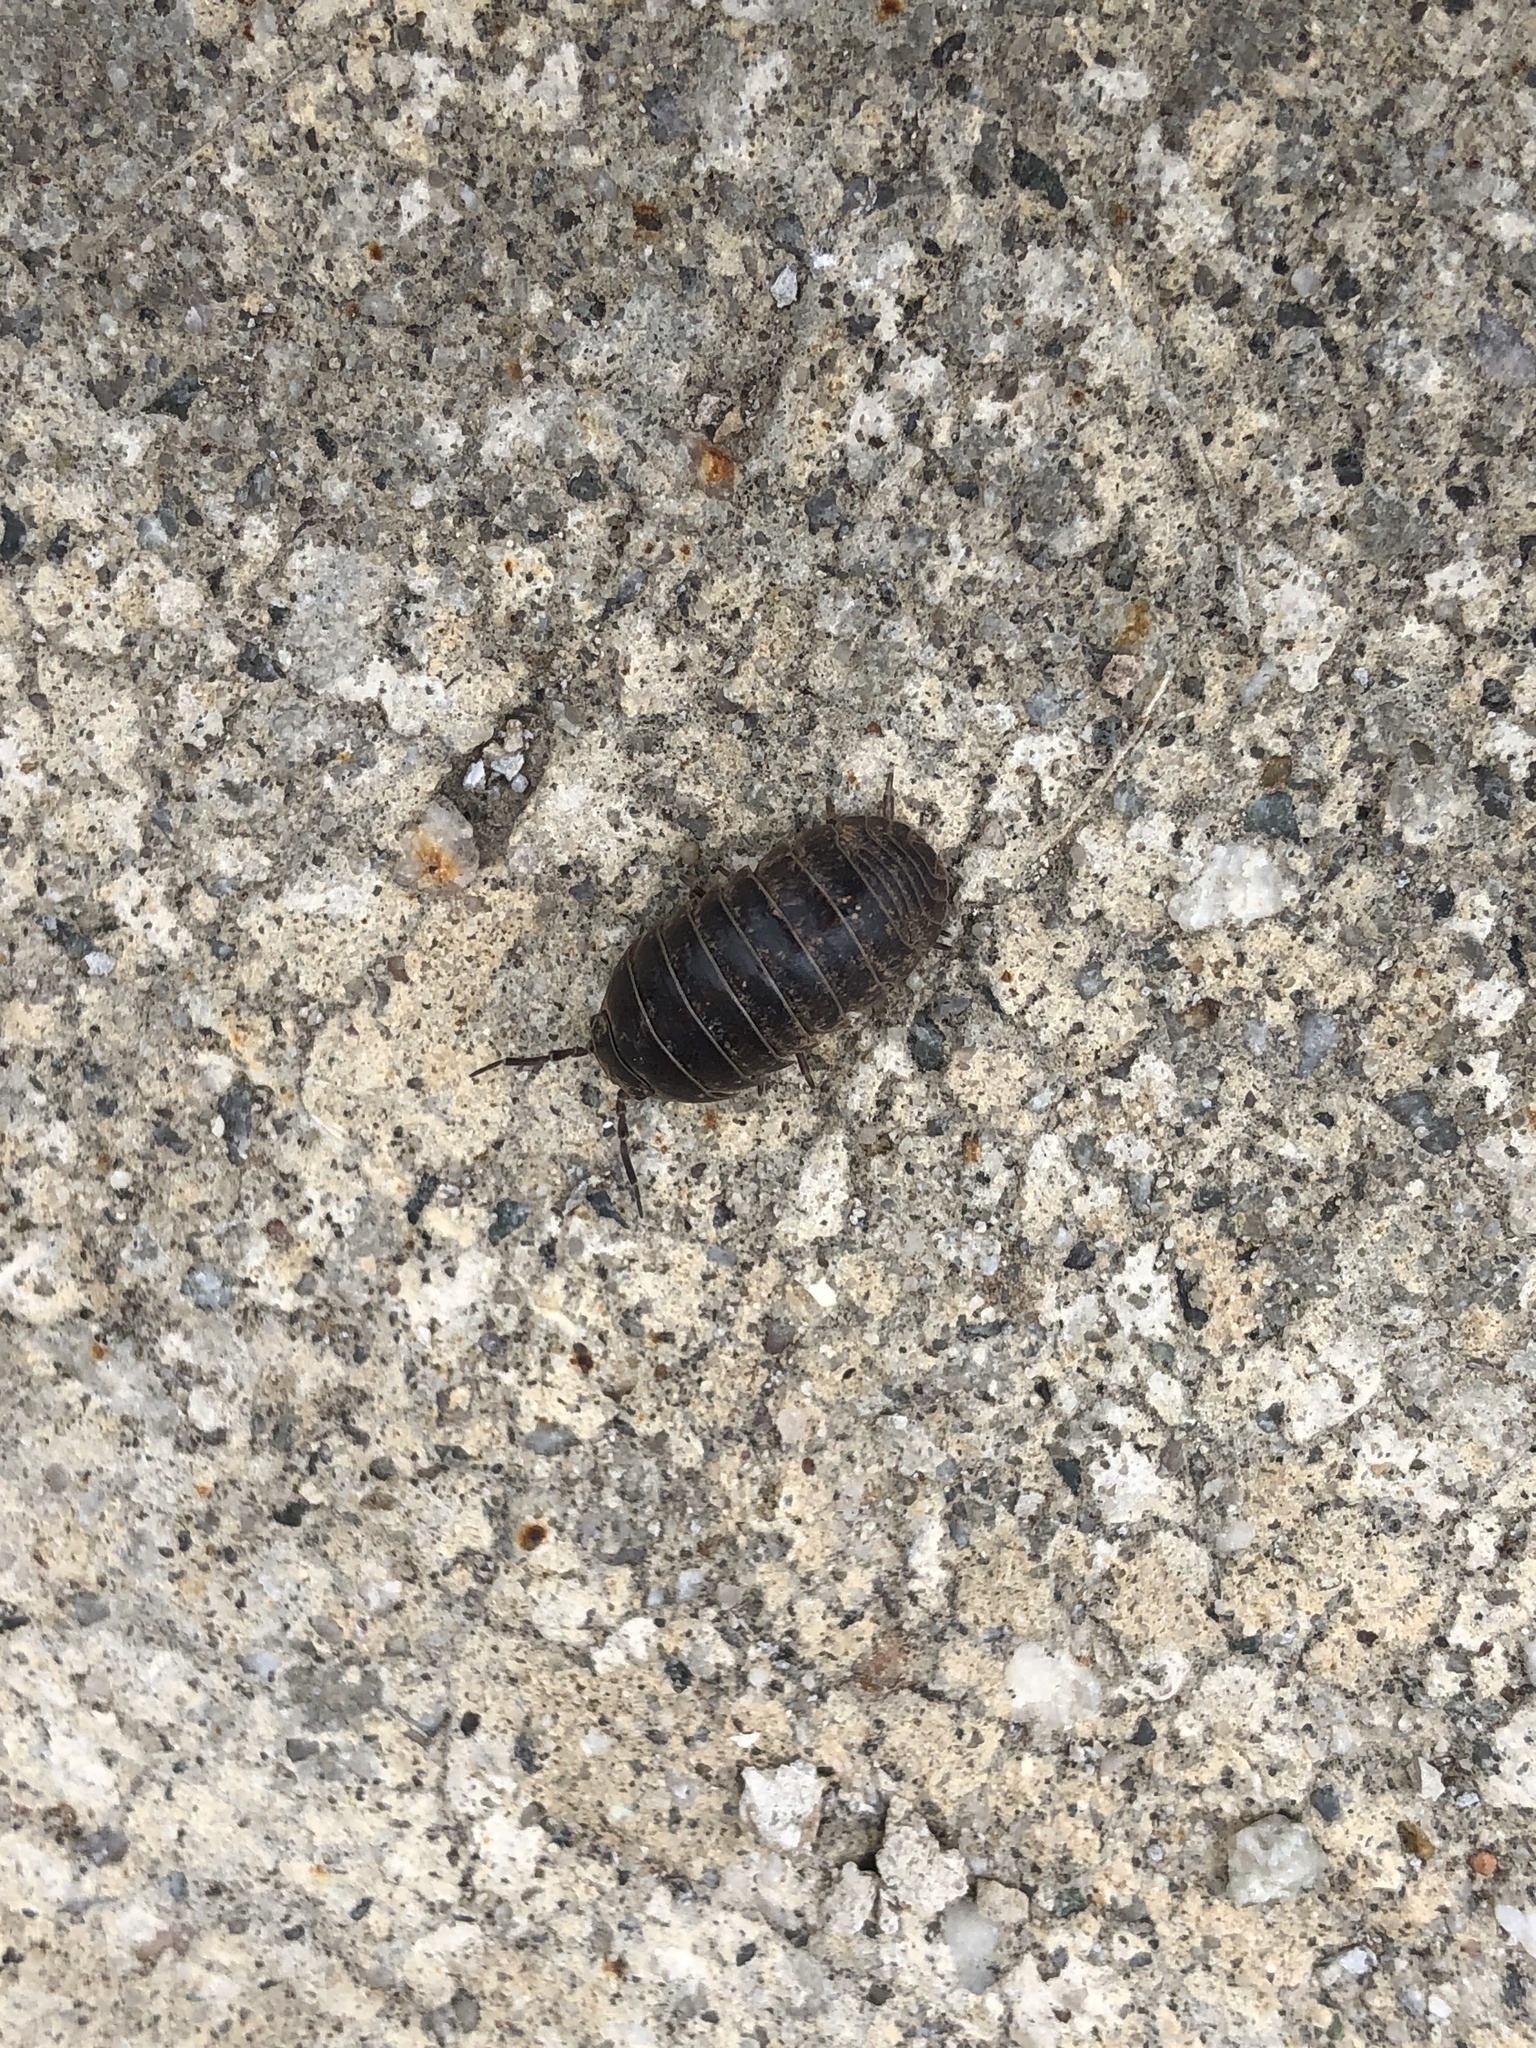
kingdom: Animalia
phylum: Arthropoda
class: Malacostraca
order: Isopoda
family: Armadillidiidae
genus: Armadillidium
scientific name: Armadillidium vulgare
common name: Common pill woodlouse
